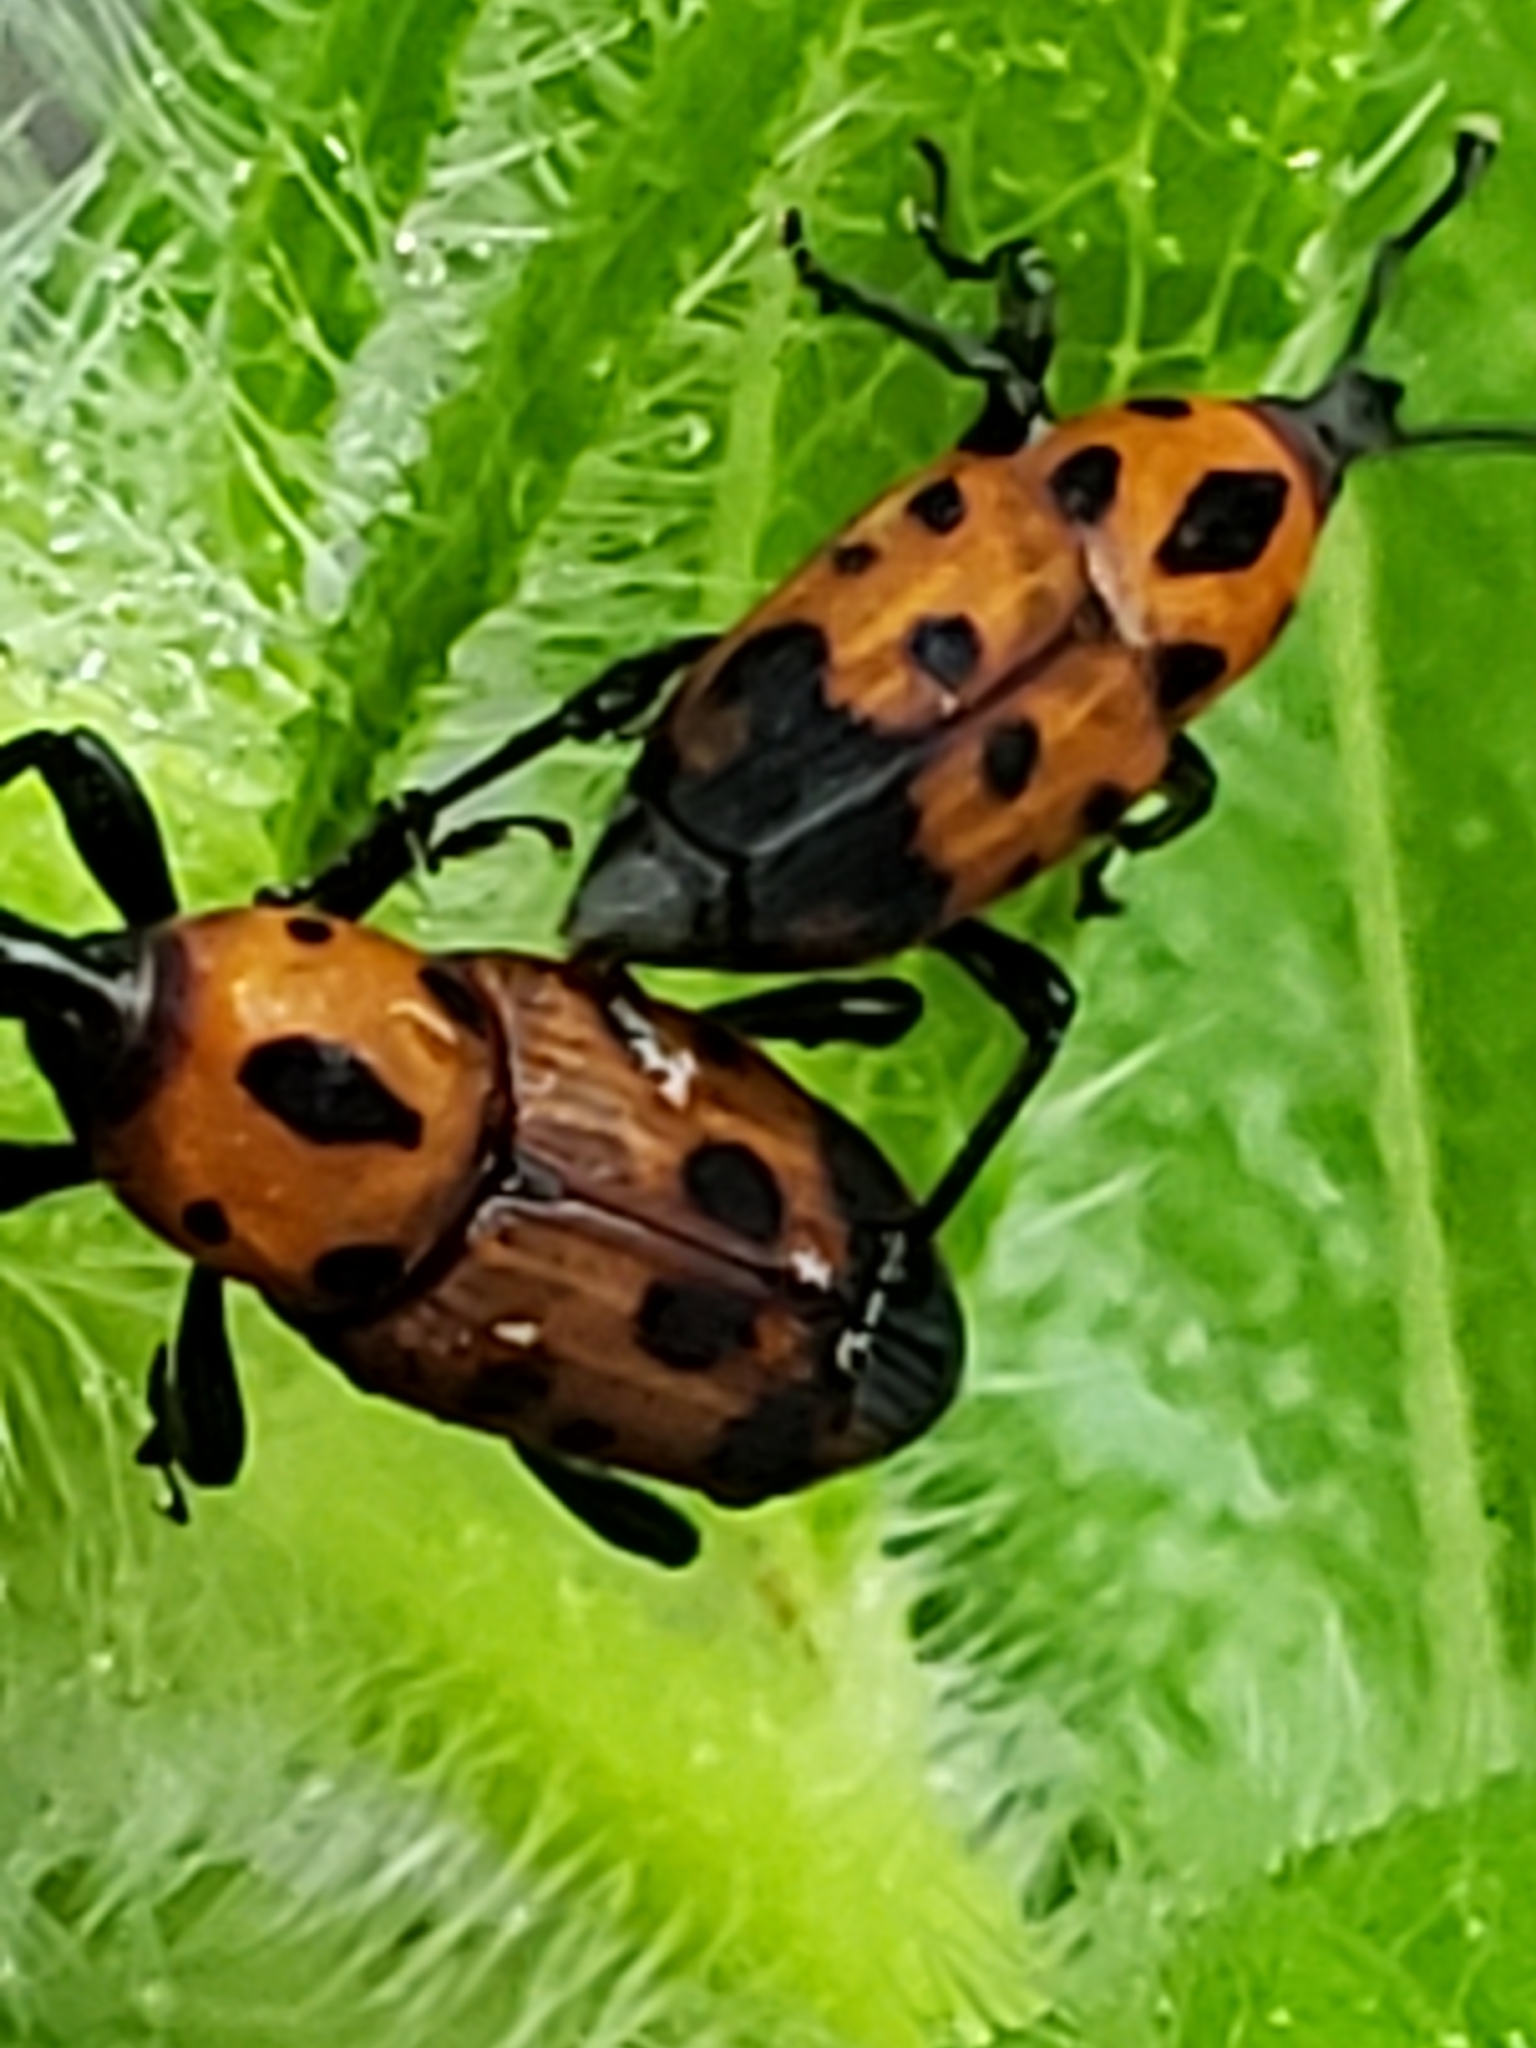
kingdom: Animalia
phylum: Arthropoda
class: Insecta
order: Coleoptera
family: Dryophthoridae
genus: Rhodobaenus
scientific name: Rhodobaenus quinquepunctatus
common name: Cocklebur weevil
